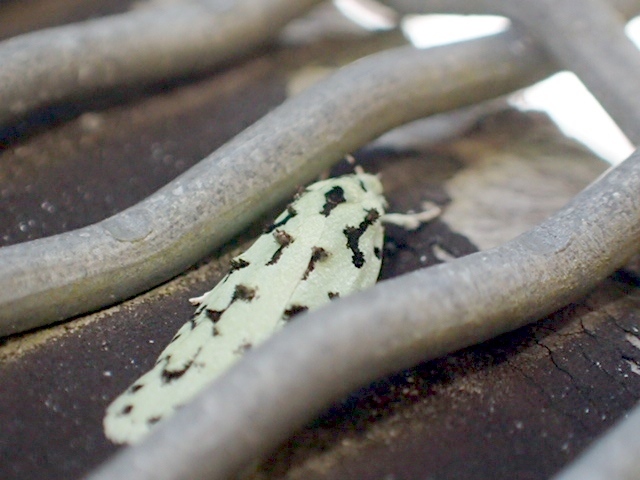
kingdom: Animalia
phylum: Arthropoda
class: Insecta
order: Lepidoptera
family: Oecophoridae
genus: Izatha
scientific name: Izatha peroneanella
